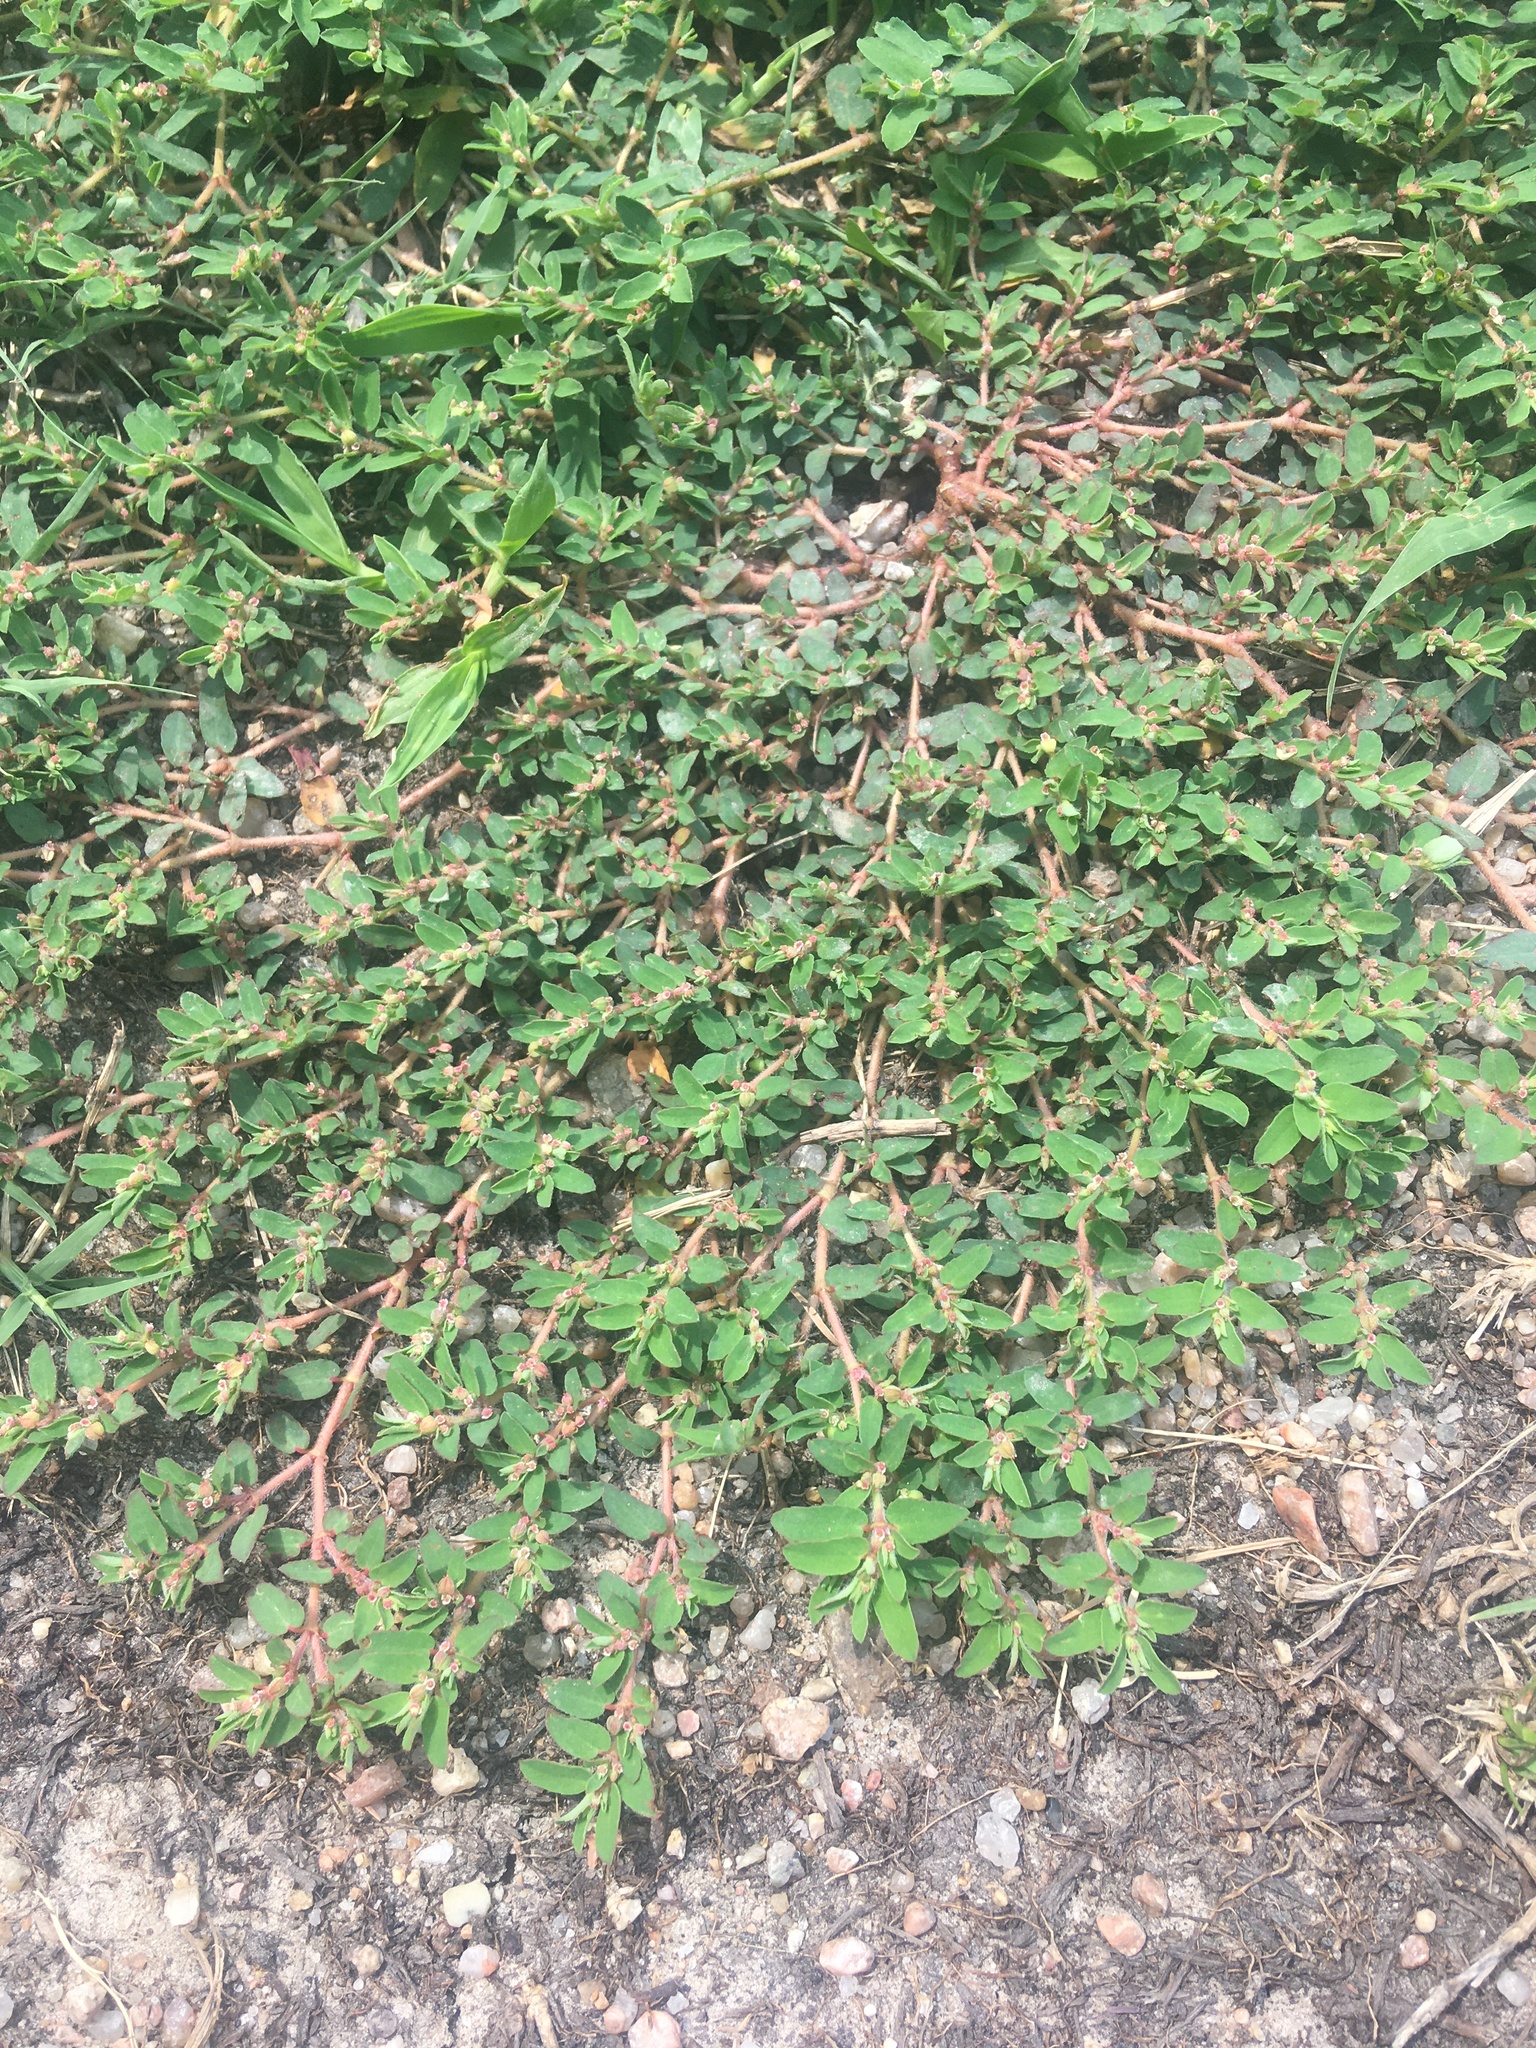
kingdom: Plantae
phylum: Tracheophyta
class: Magnoliopsida
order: Malpighiales
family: Euphorbiaceae
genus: Euphorbia
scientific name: Euphorbia maculata
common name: Spotted spurge
